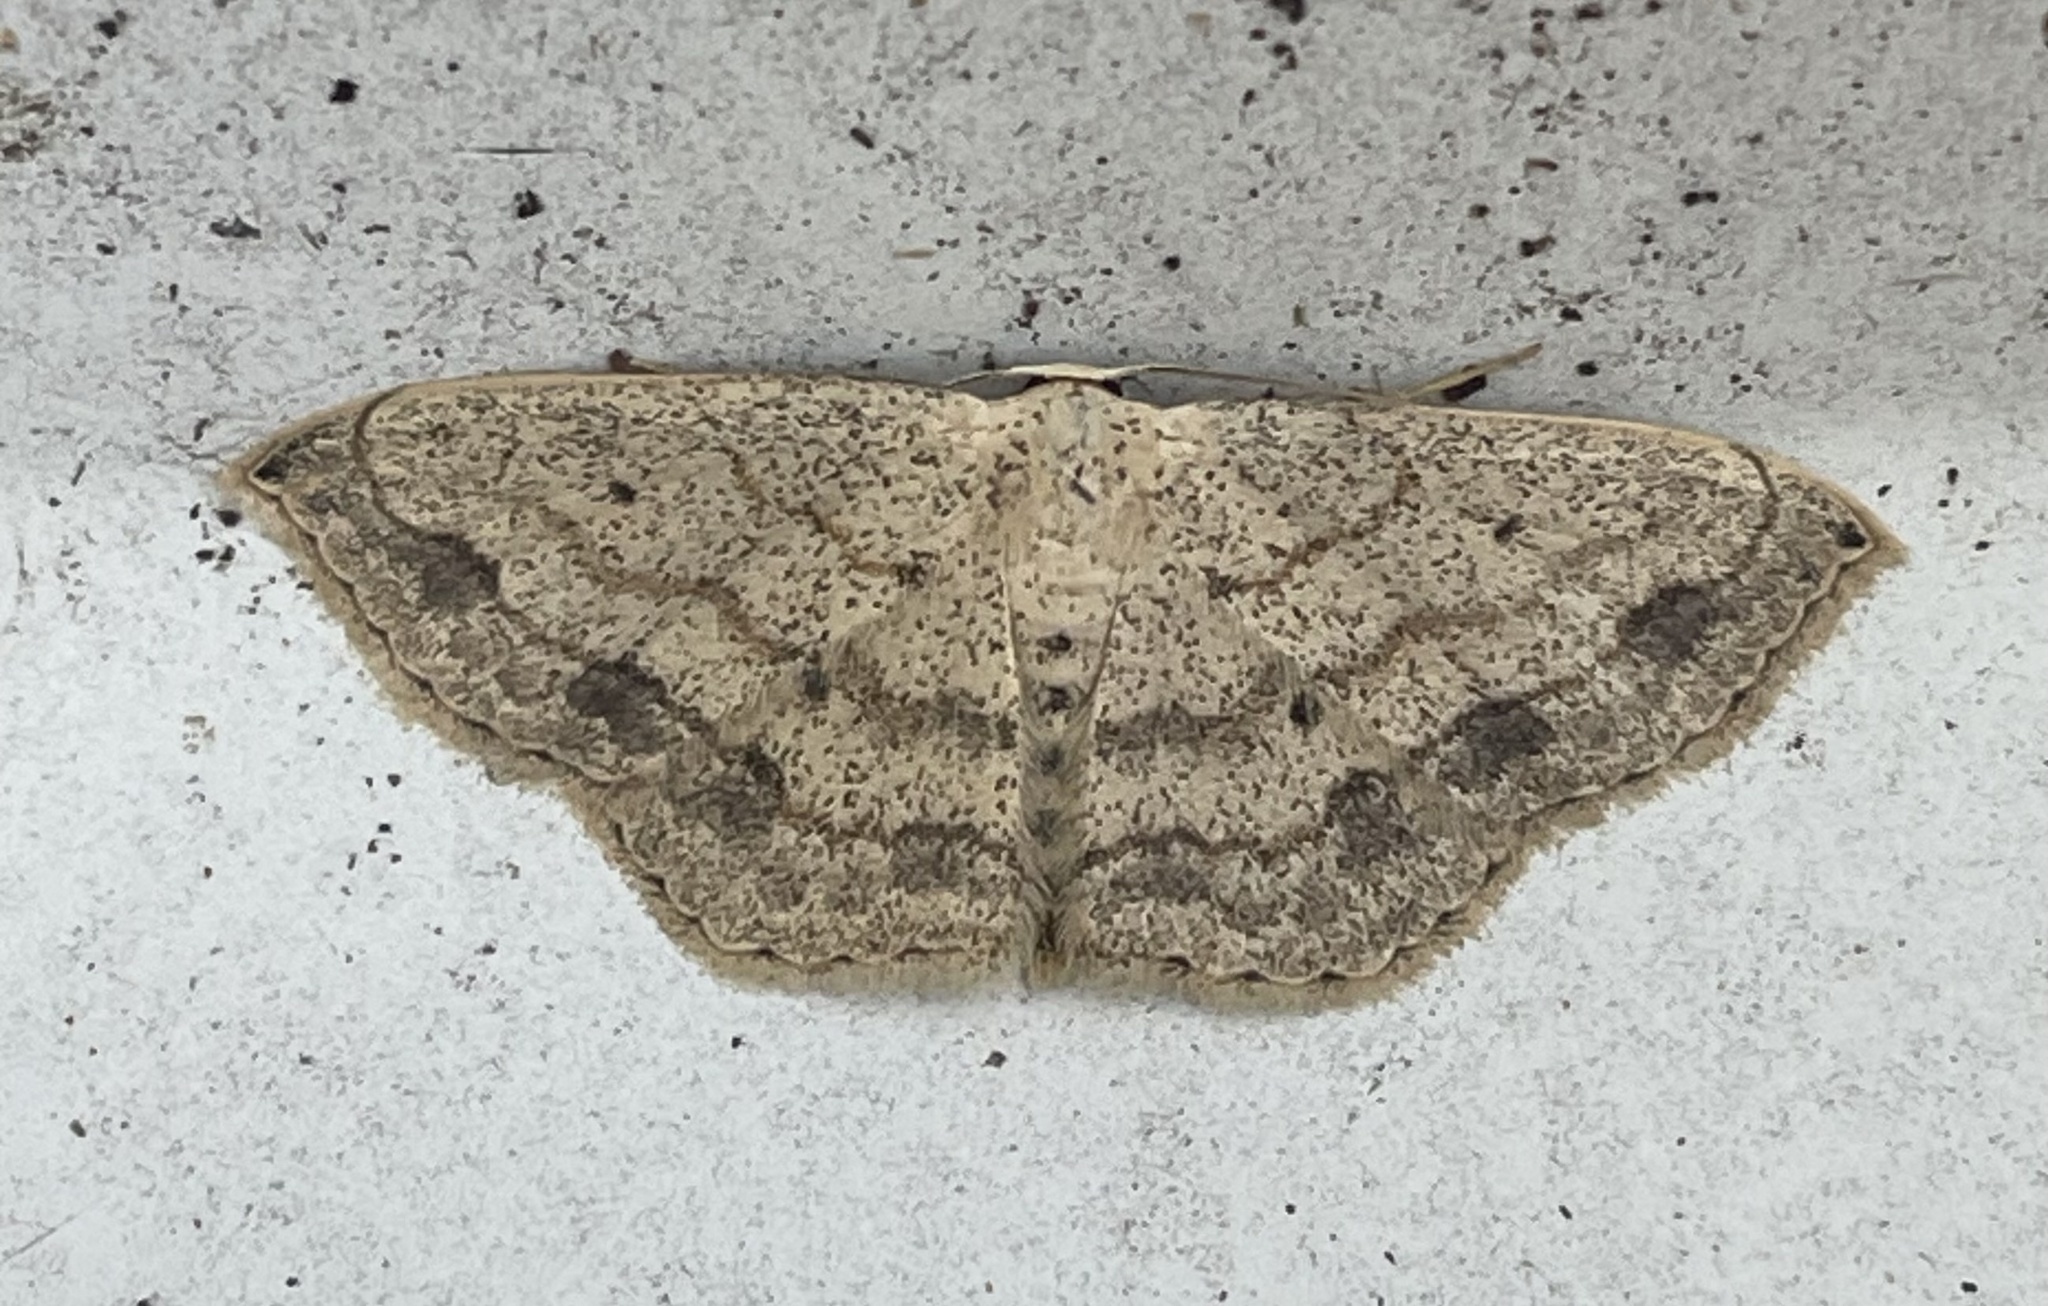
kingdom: Animalia
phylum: Arthropoda
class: Insecta
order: Lepidoptera
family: Geometridae
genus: Scopula
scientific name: Scopula compensata
